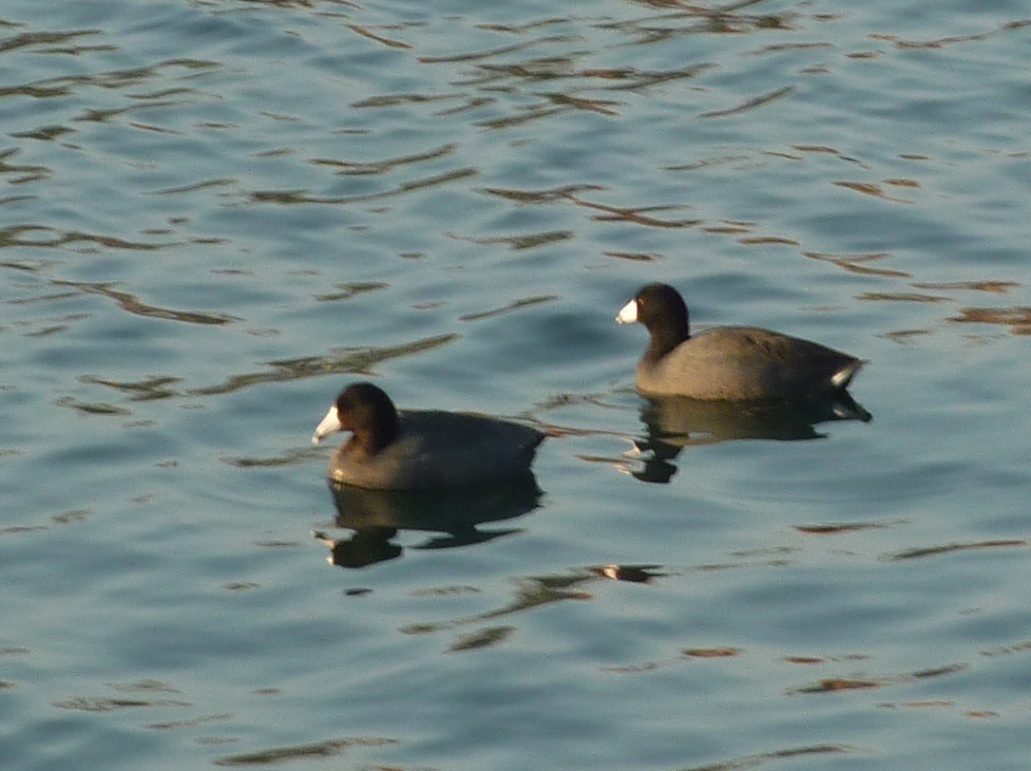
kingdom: Animalia
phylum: Chordata
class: Aves
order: Gruiformes
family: Rallidae
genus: Fulica
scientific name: Fulica americana
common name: American coot
